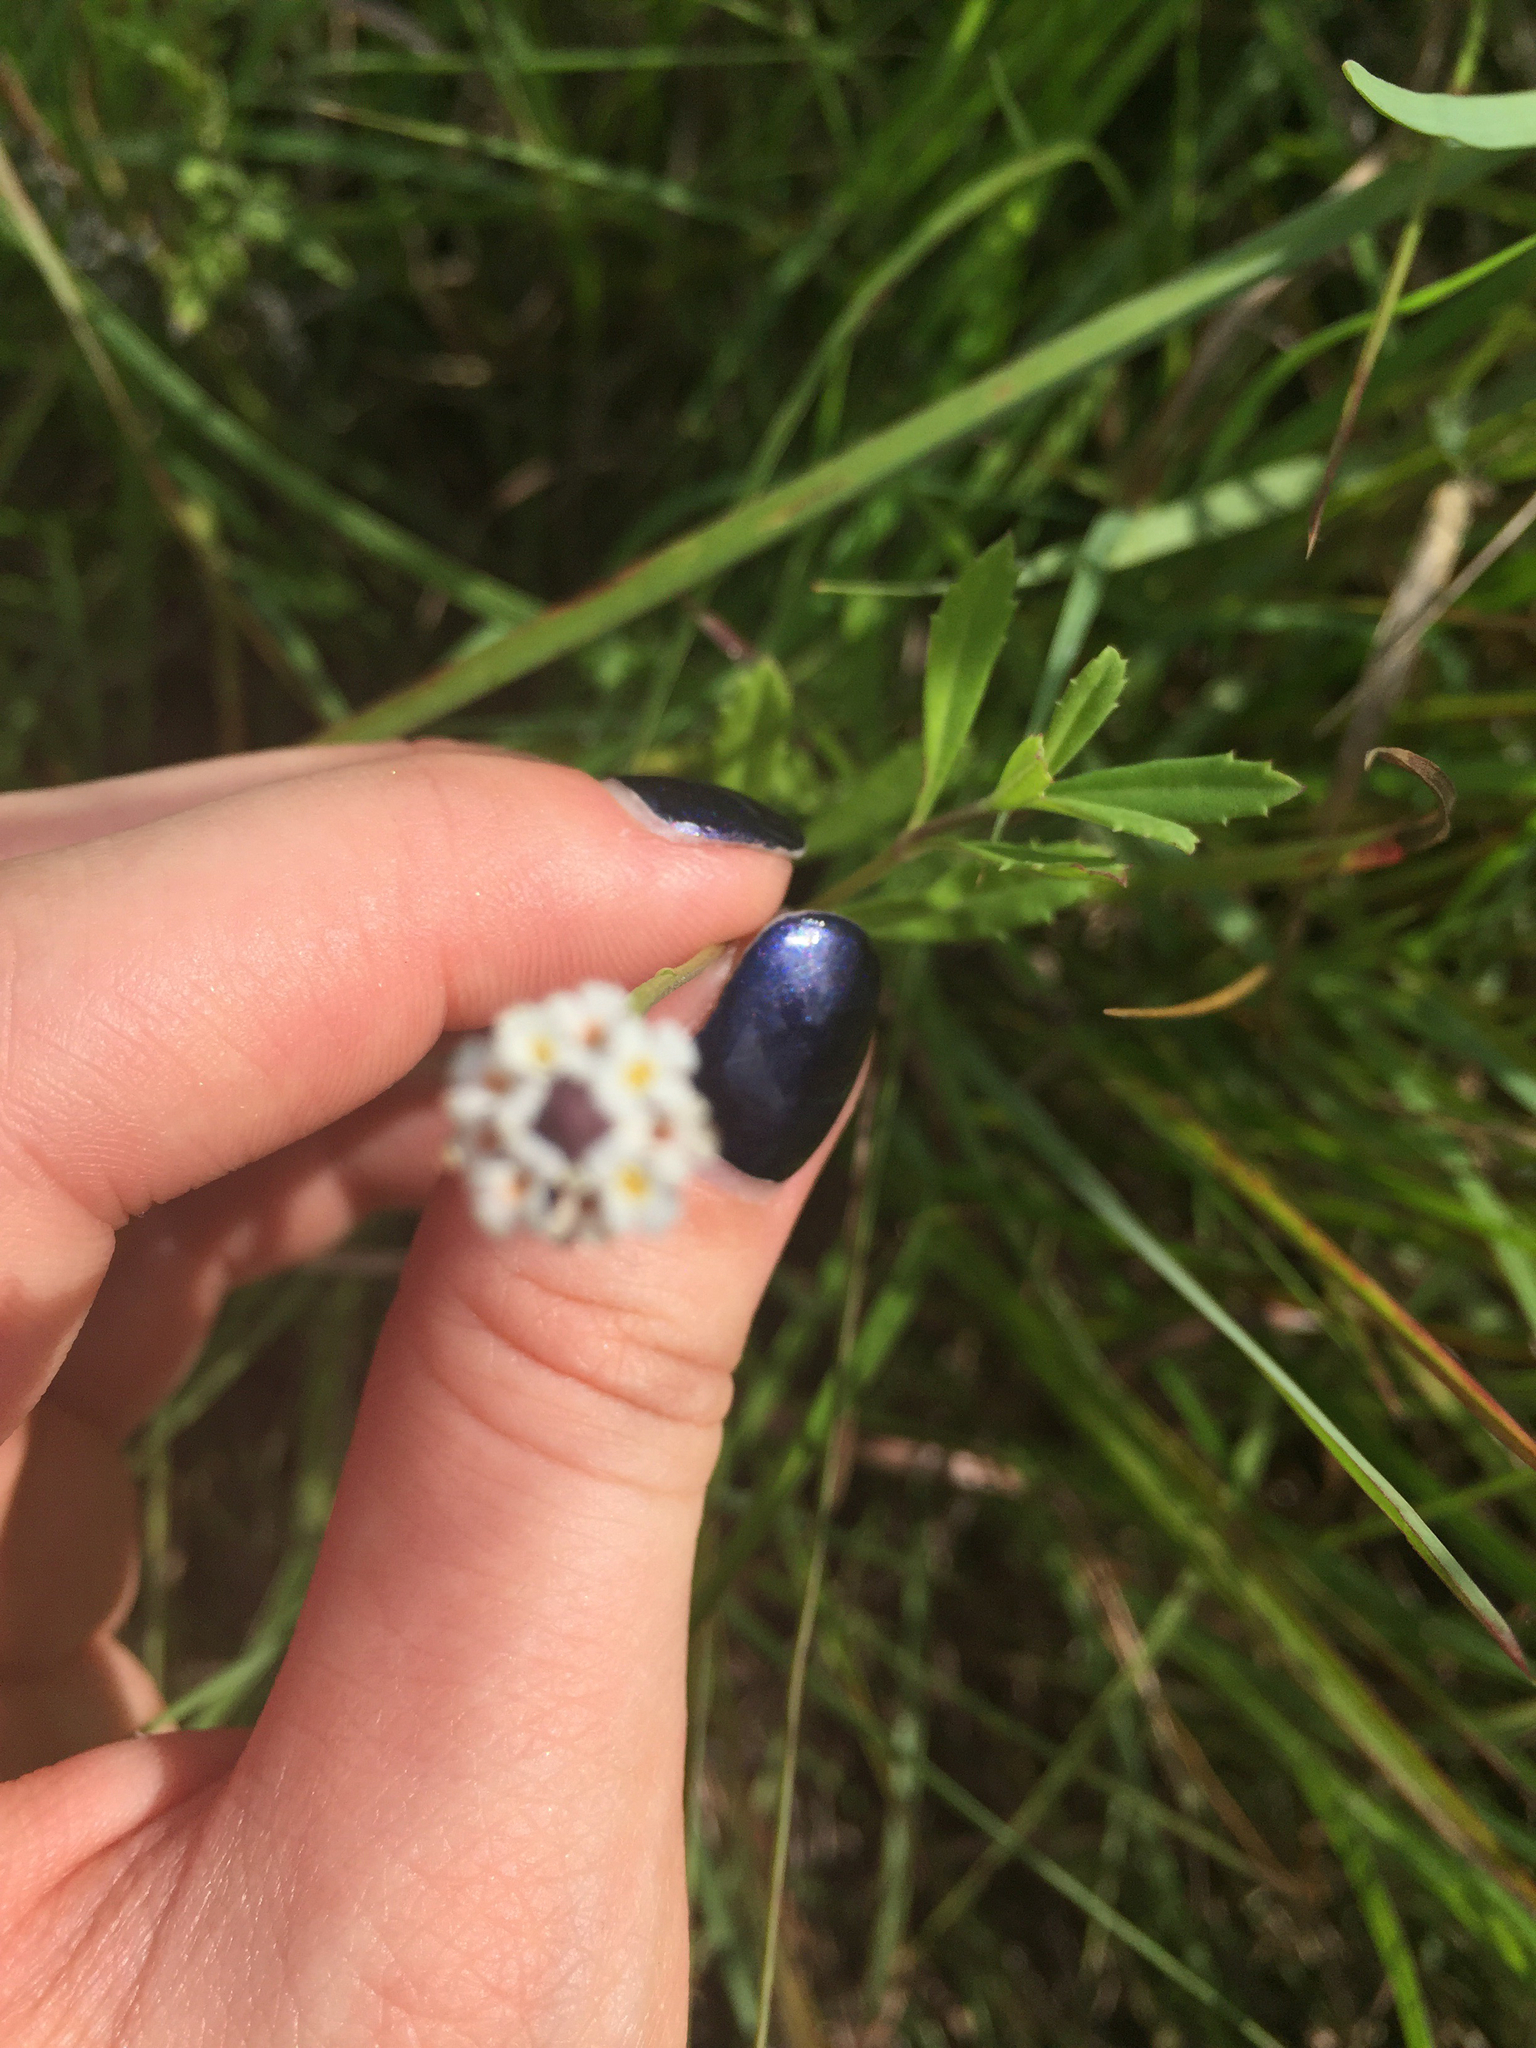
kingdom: Plantae
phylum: Tracheophyta
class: Magnoliopsida
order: Lamiales
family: Verbenaceae
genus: Phyla
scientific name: Phyla nodiflora
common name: Frogfruit
